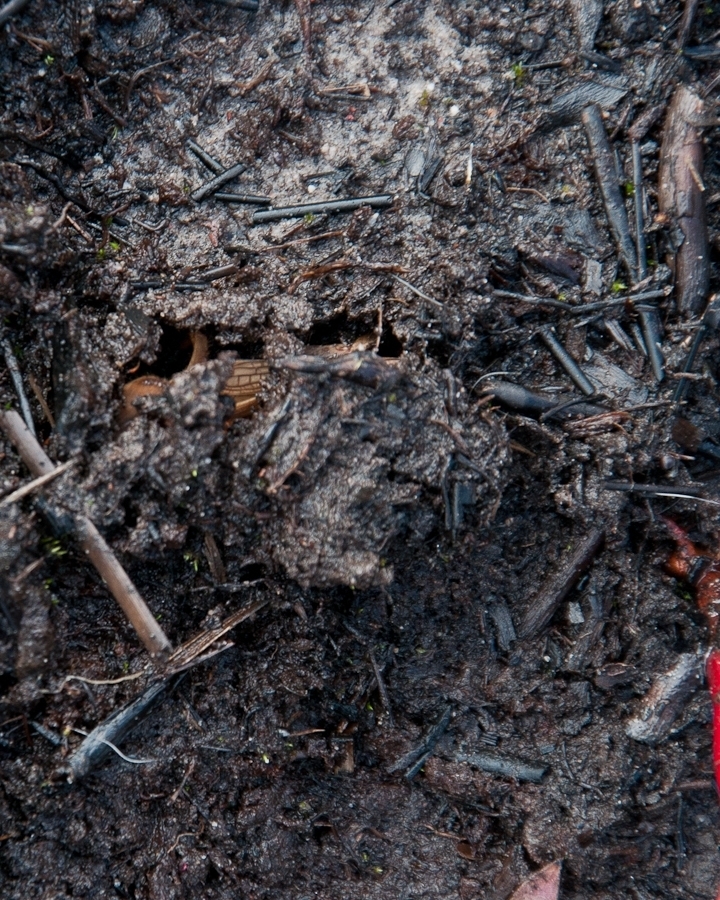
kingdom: Animalia
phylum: Arthropoda
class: Insecta
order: Orthoptera
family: Gryllotalpidae
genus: Gryllotalpa
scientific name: Gryllotalpa africana
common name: African mole cricket
